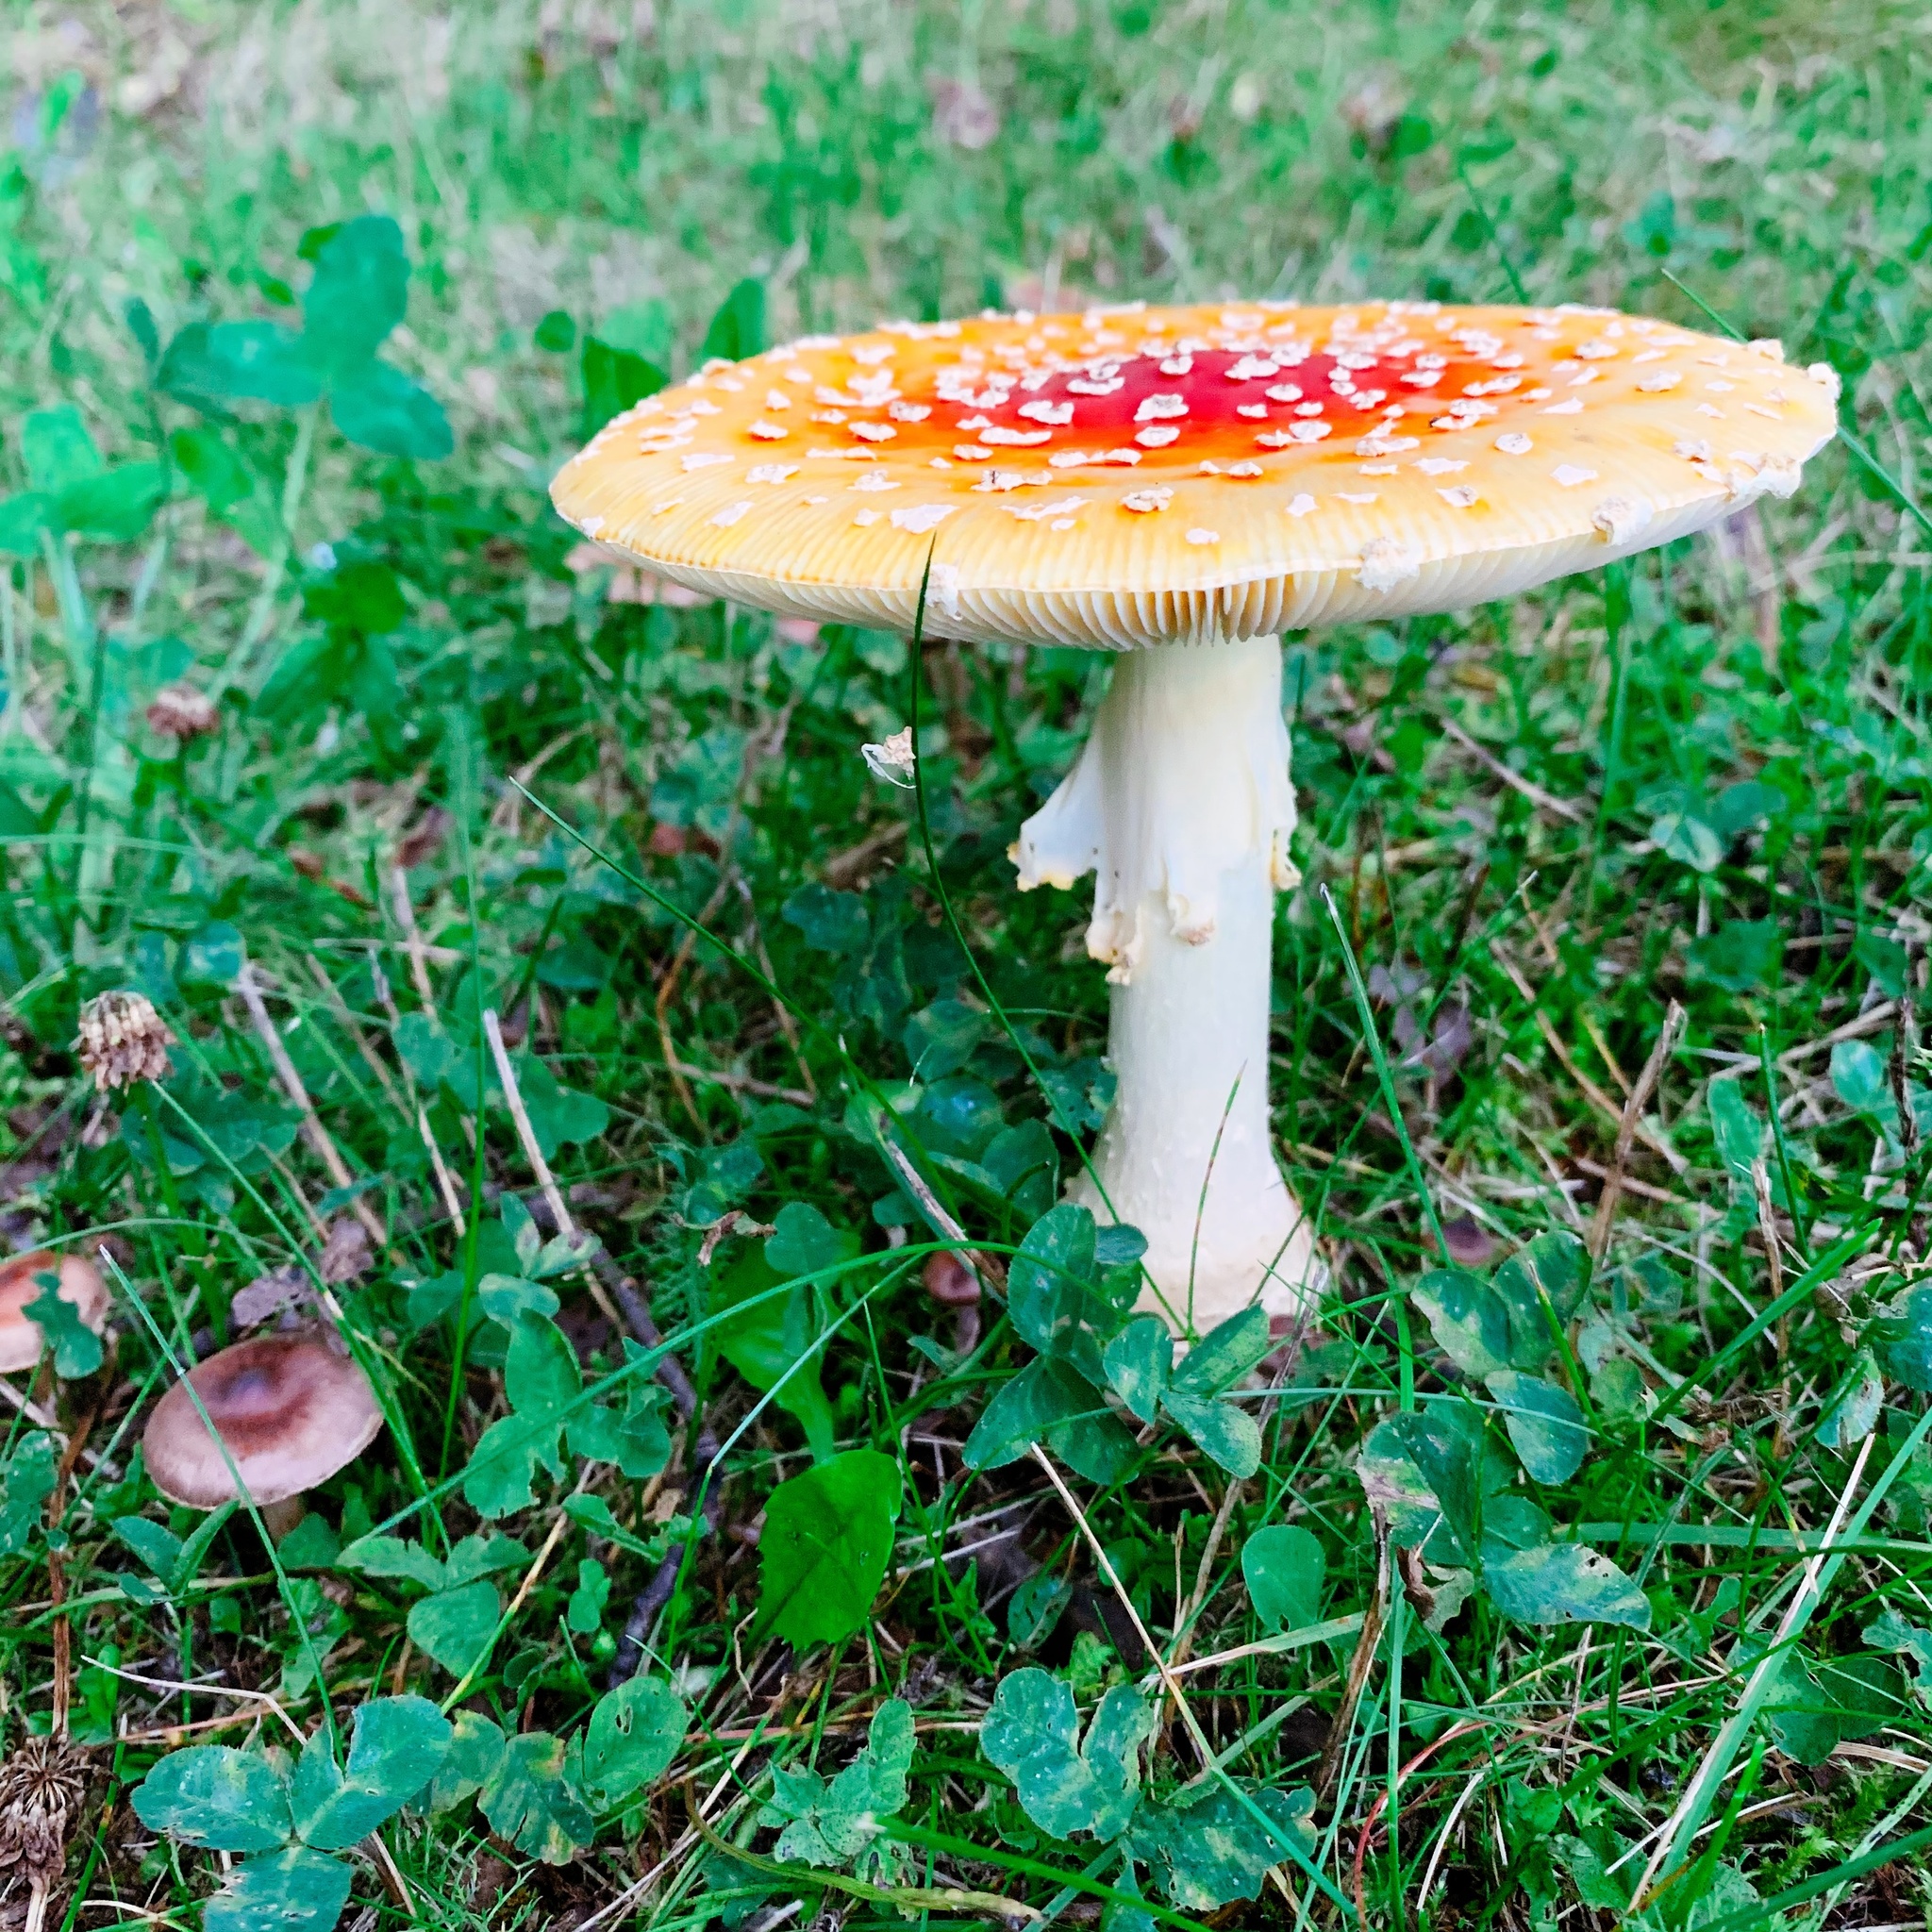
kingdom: Fungi
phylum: Basidiomycota
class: Agaricomycetes
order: Agaricales
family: Amanitaceae
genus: Amanita
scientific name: Amanita muscaria
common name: Fly agaric
